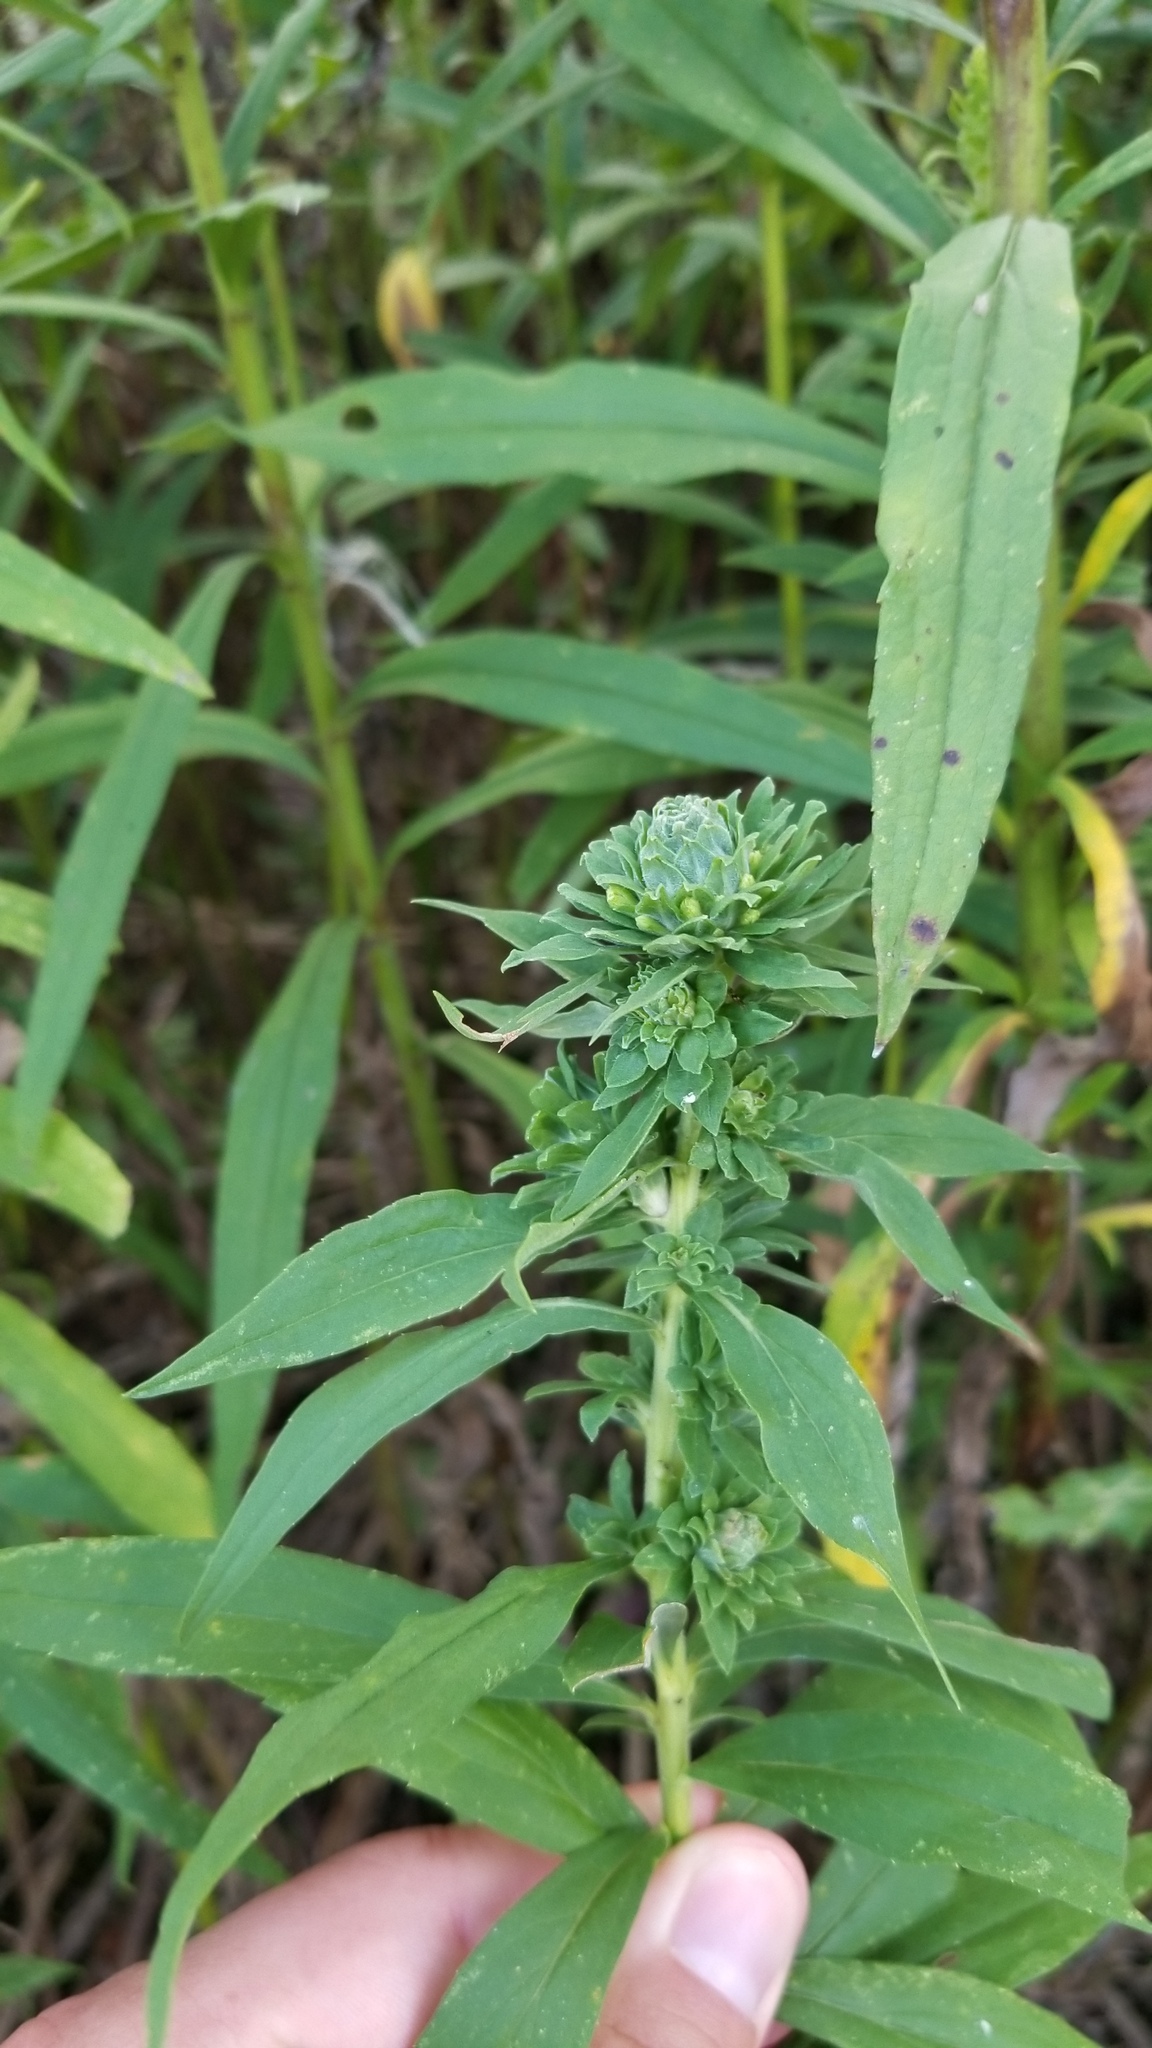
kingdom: Animalia
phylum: Arthropoda
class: Insecta
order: Diptera
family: Tephritidae
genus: Procecidochares
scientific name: Procecidochares atra
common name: Goldenrod brussels sprout gall fly
